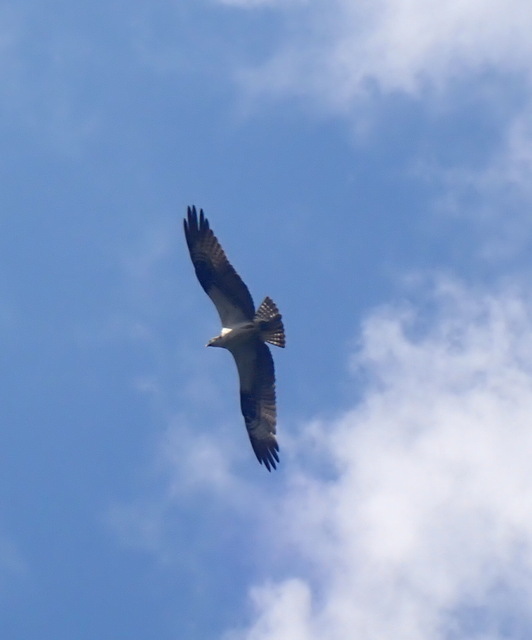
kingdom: Animalia
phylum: Chordata
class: Aves
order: Accipitriformes
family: Pandionidae
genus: Pandion
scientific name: Pandion haliaetus
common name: Osprey
